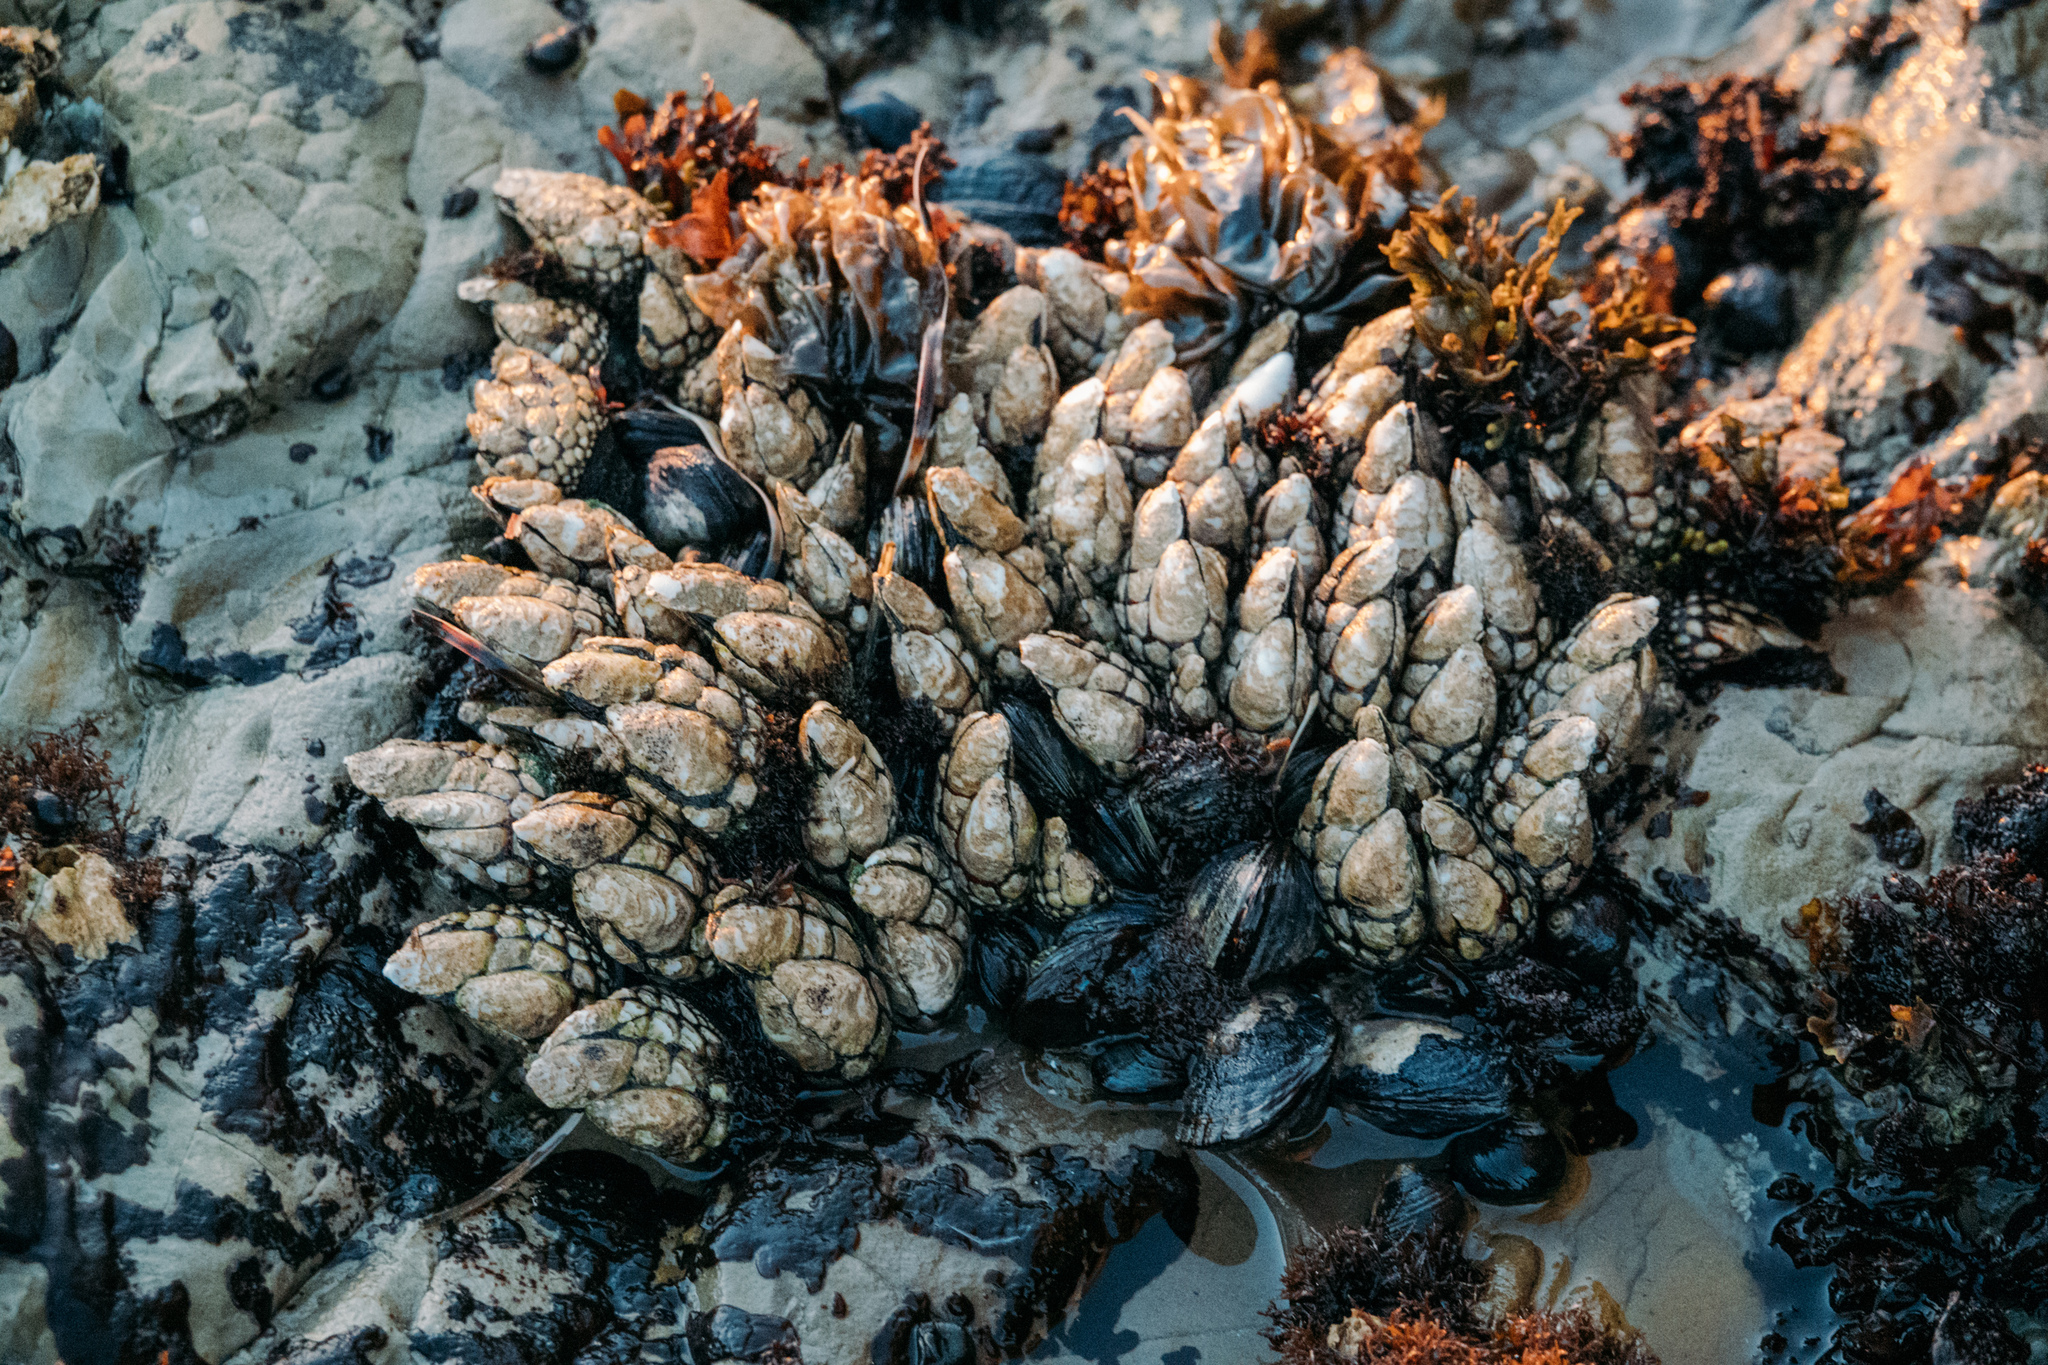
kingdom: Animalia
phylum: Arthropoda
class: Maxillopoda
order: Pedunculata
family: Pollicipedidae
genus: Pollicipes
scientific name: Pollicipes polymerus
